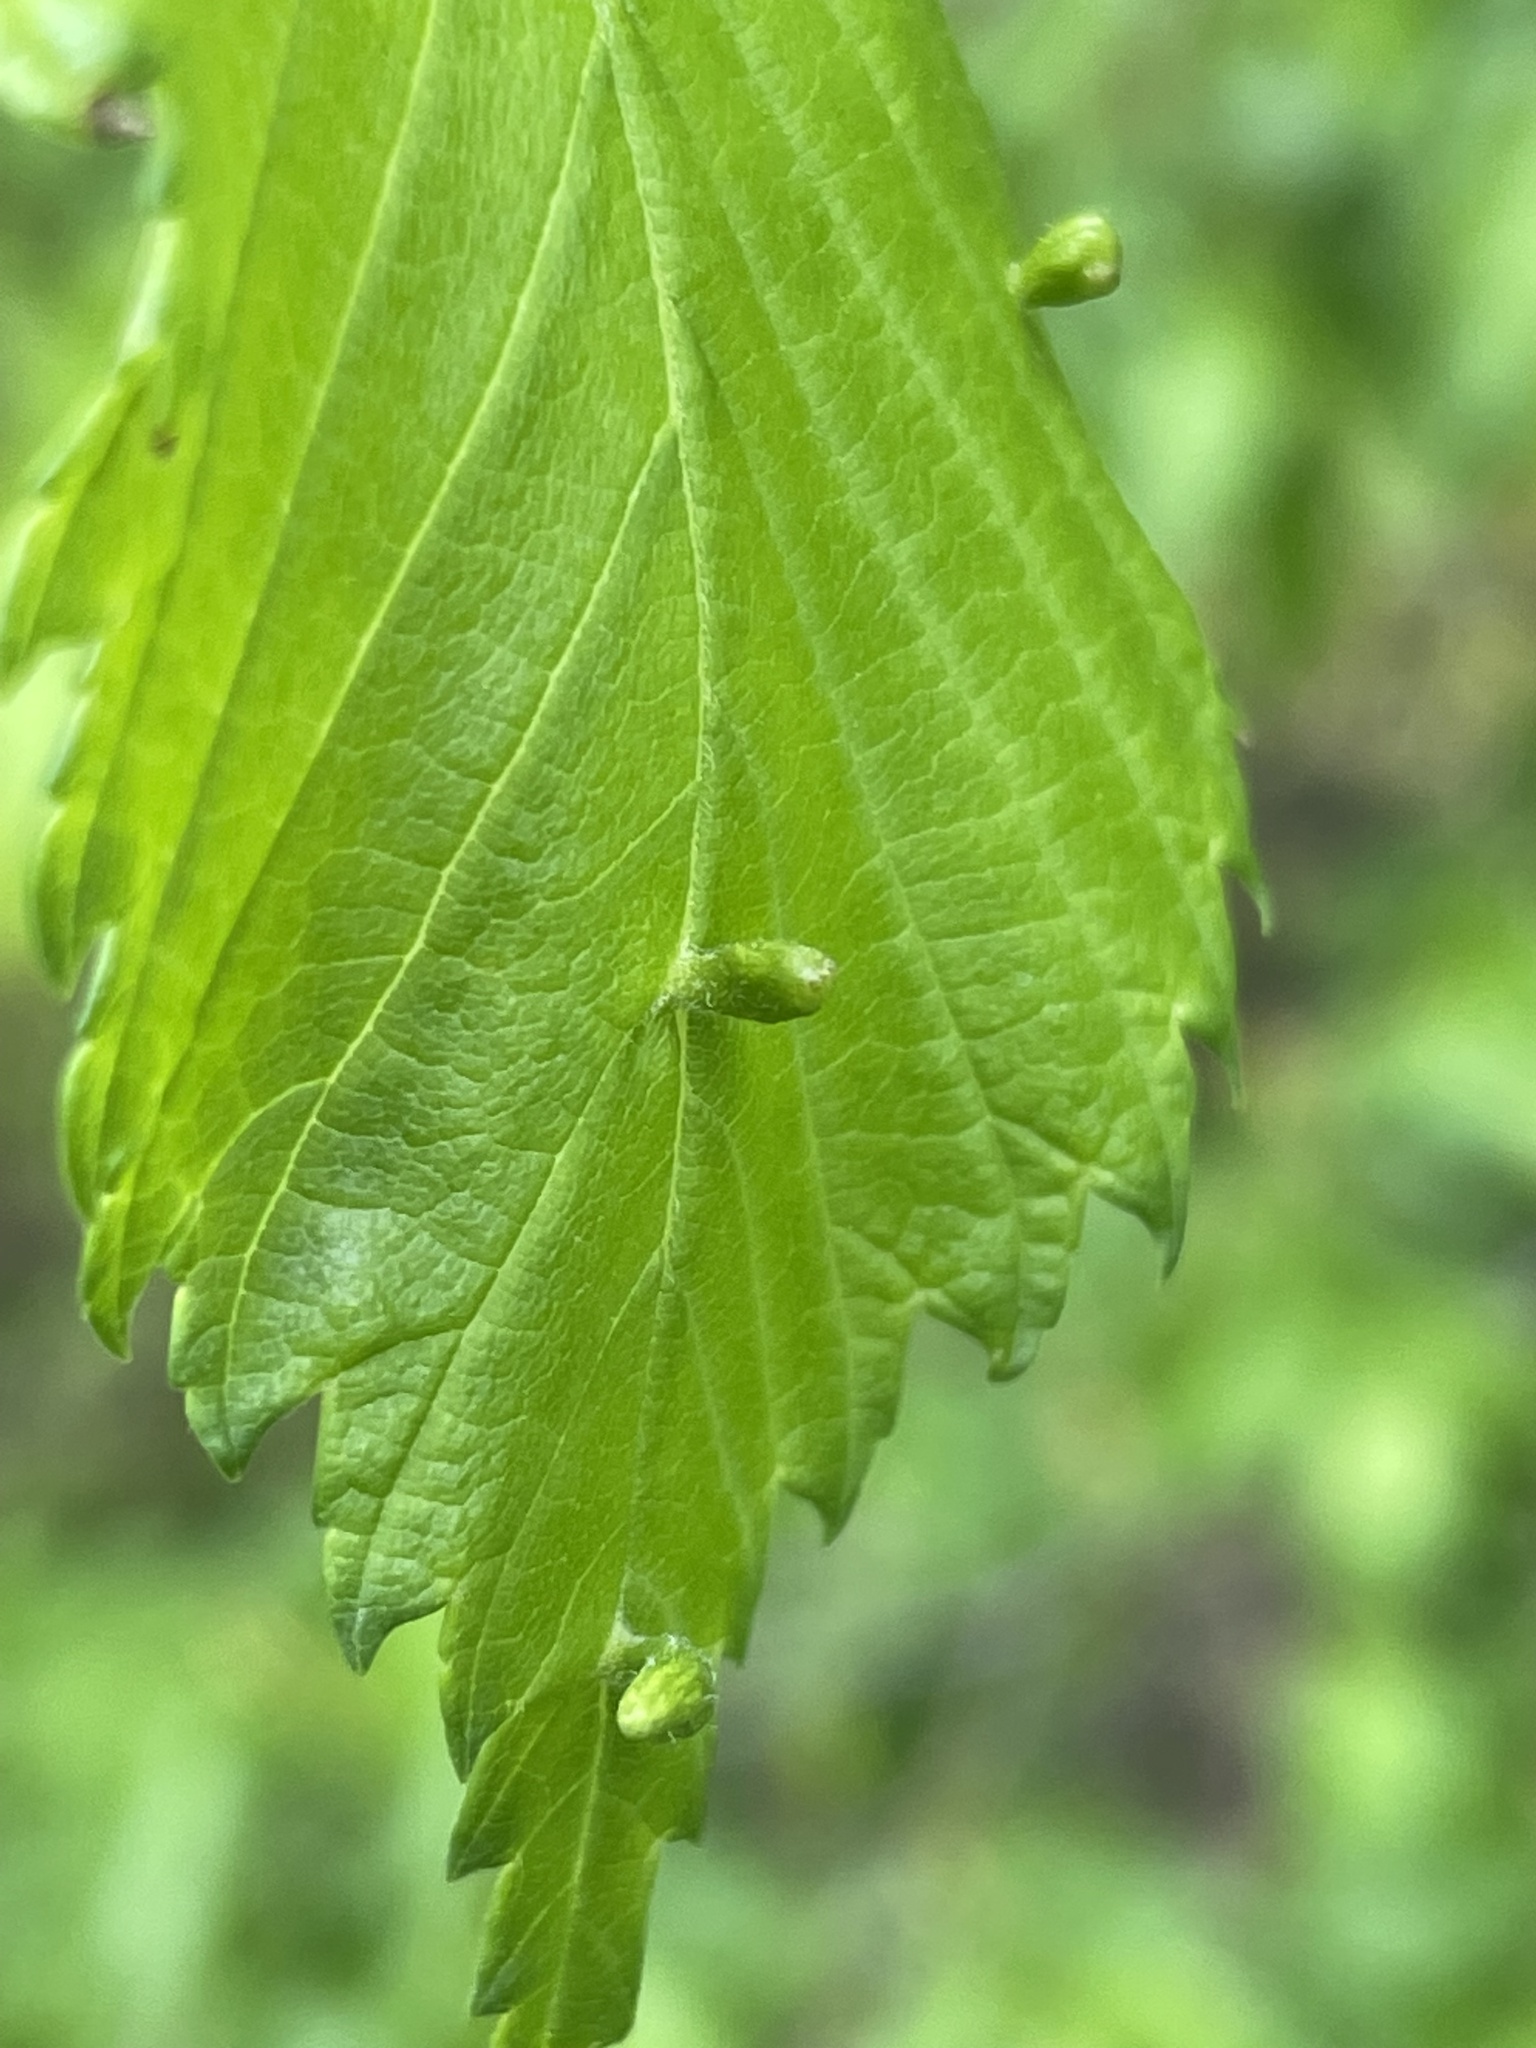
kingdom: Animalia
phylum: Arthropoda
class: Arachnida
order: Trombidiformes
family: Eriophyidae
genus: Aceria
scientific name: Aceria
